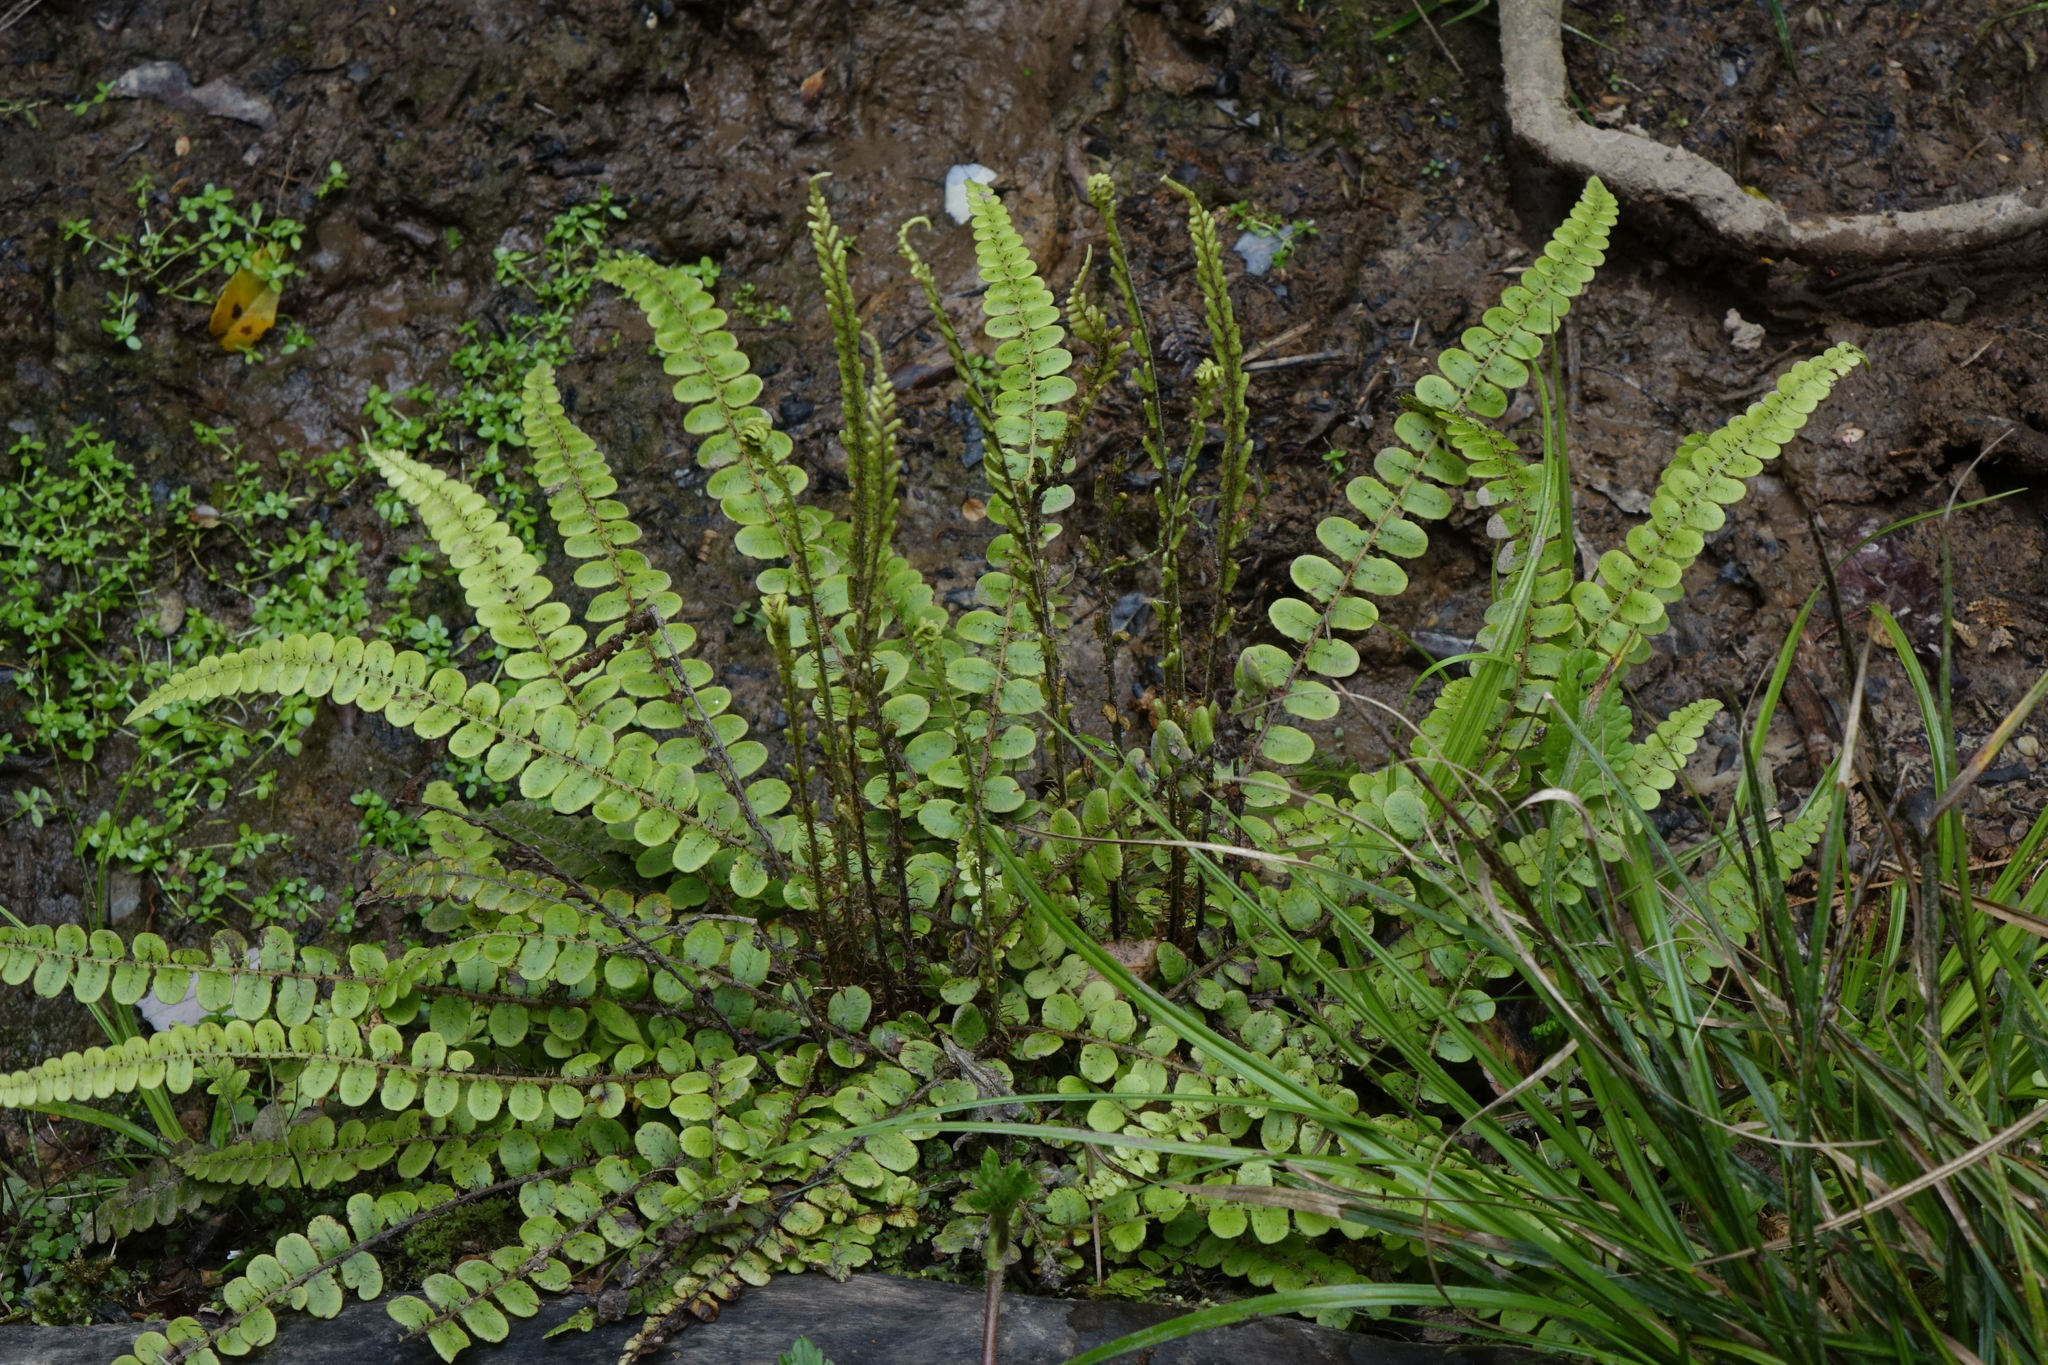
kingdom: Plantae
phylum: Tracheophyta
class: Polypodiopsida
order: Polypodiales
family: Blechnaceae
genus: Cranfillia
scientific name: Cranfillia fluviatilis
